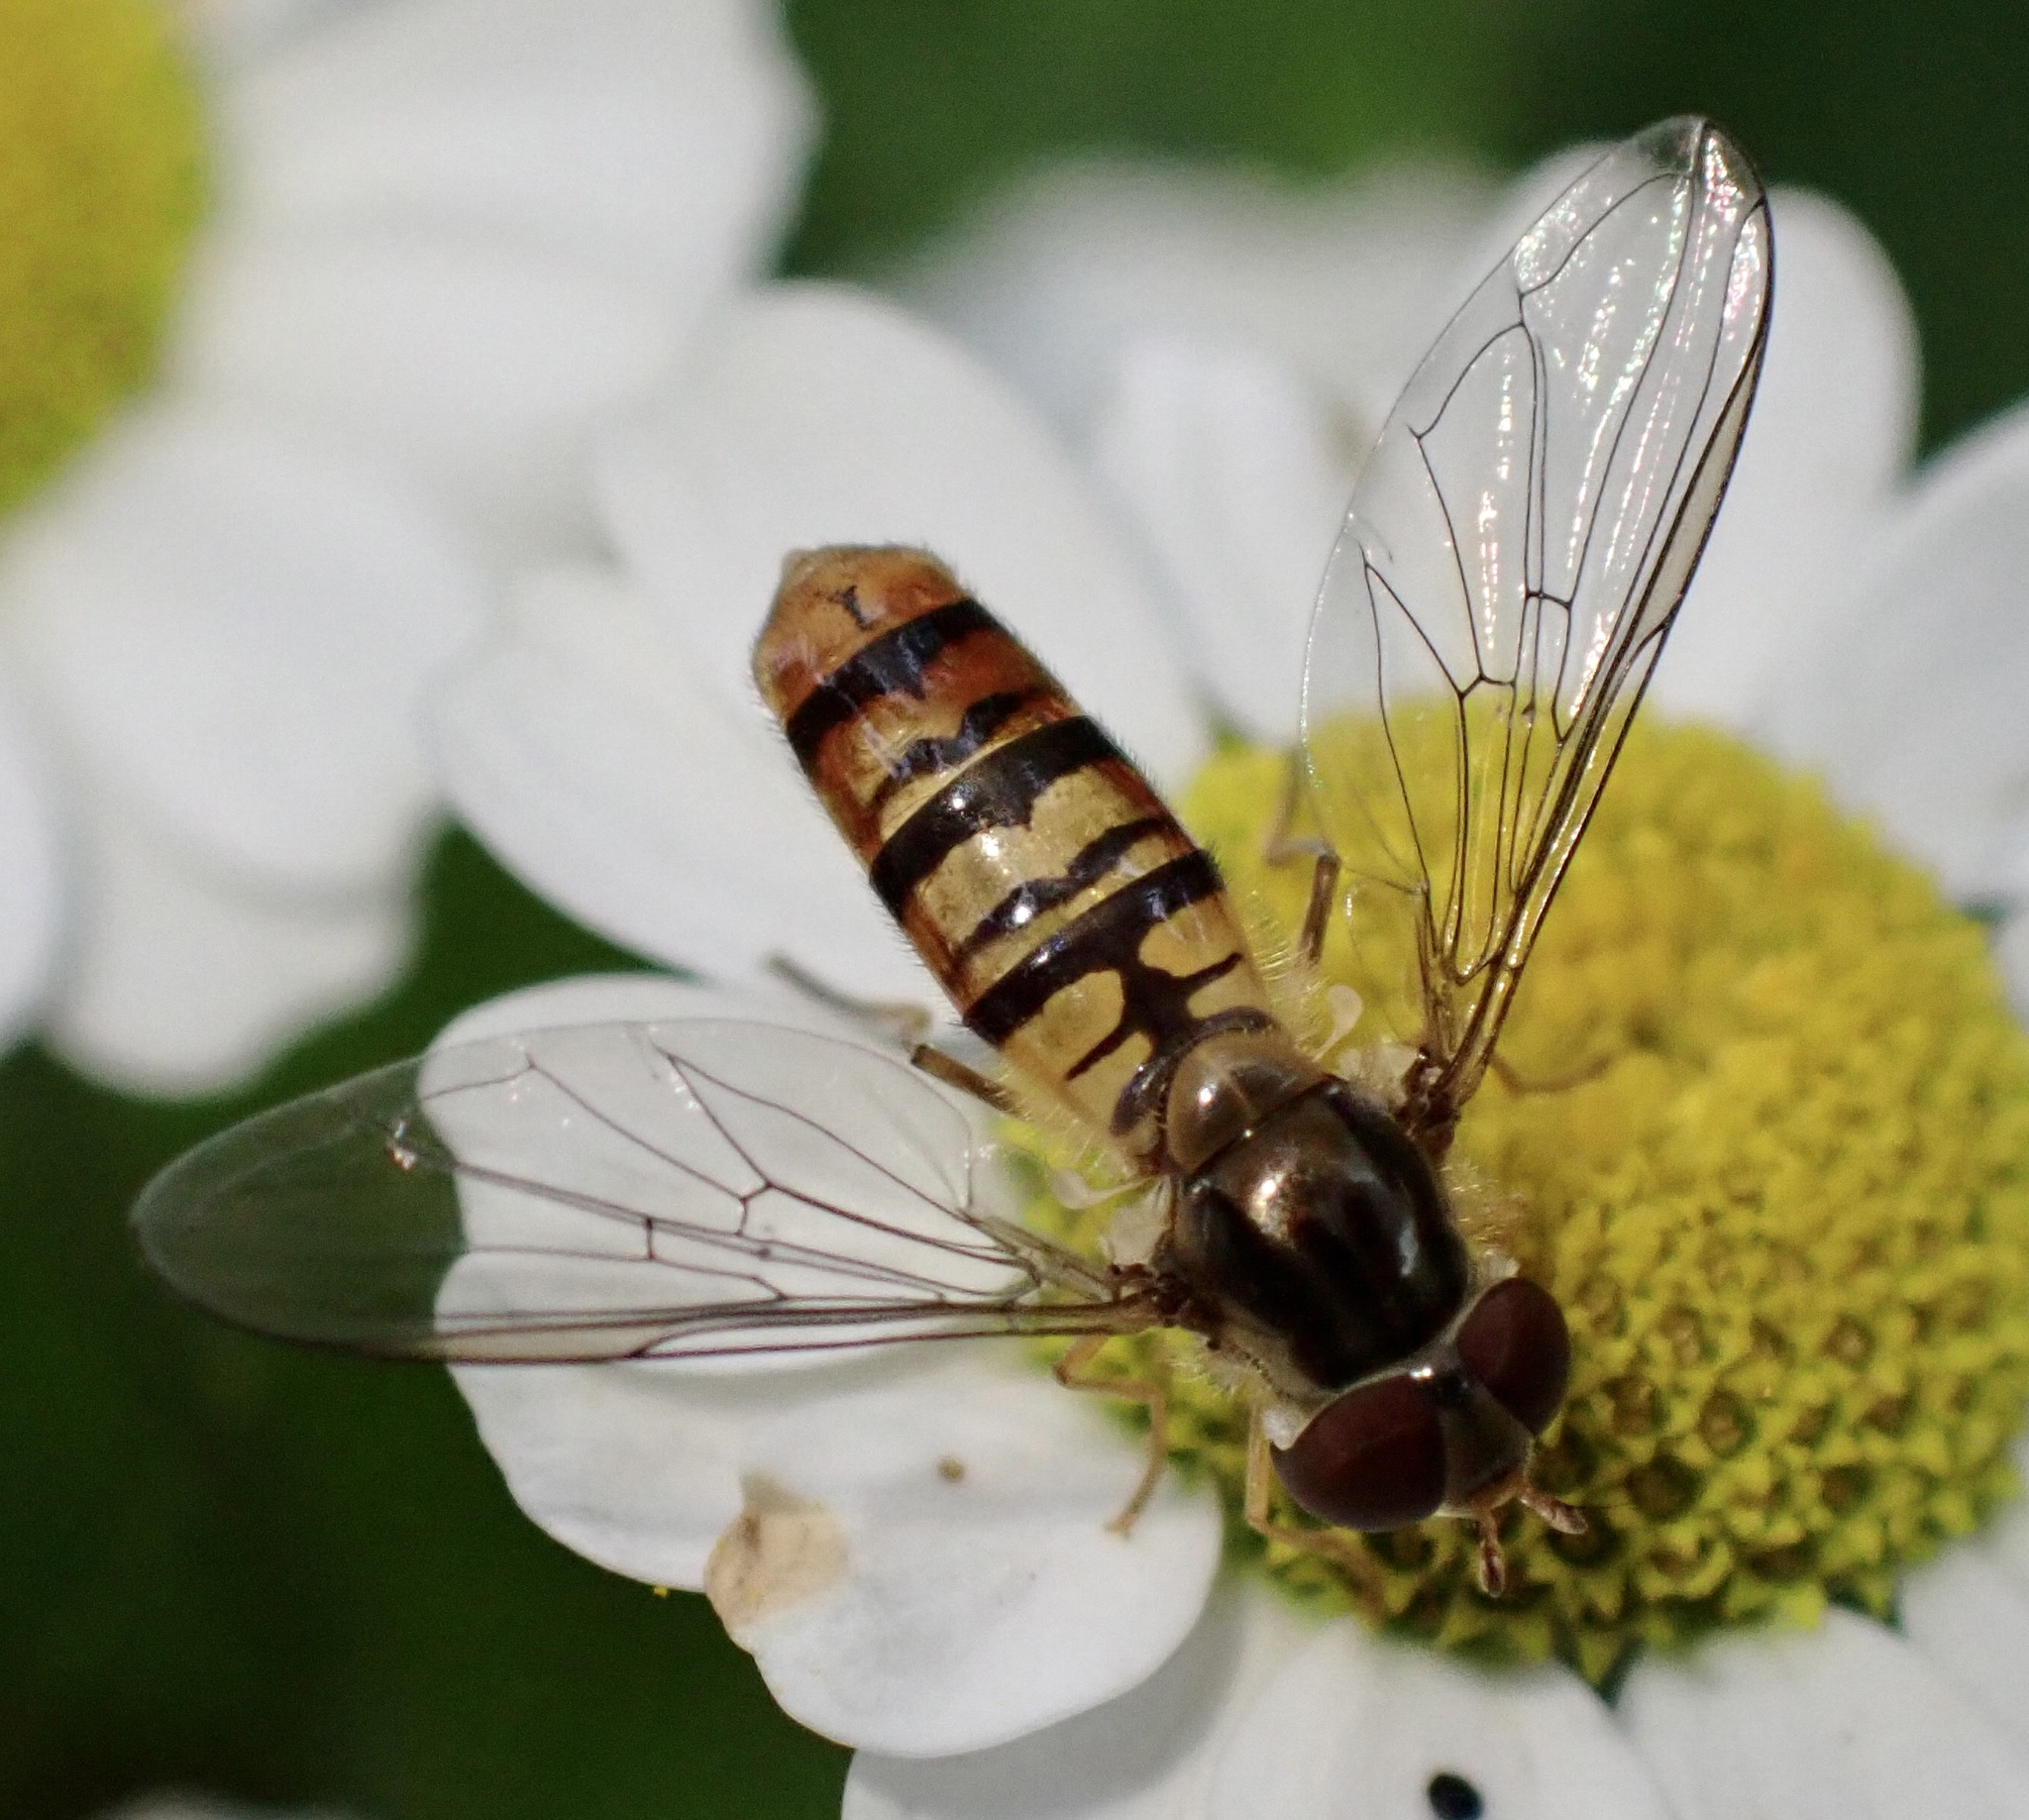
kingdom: Animalia
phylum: Arthropoda
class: Insecta
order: Diptera
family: Syrphidae
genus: Episyrphus
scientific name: Episyrphus balteatus
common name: Marmalade hoverfly
